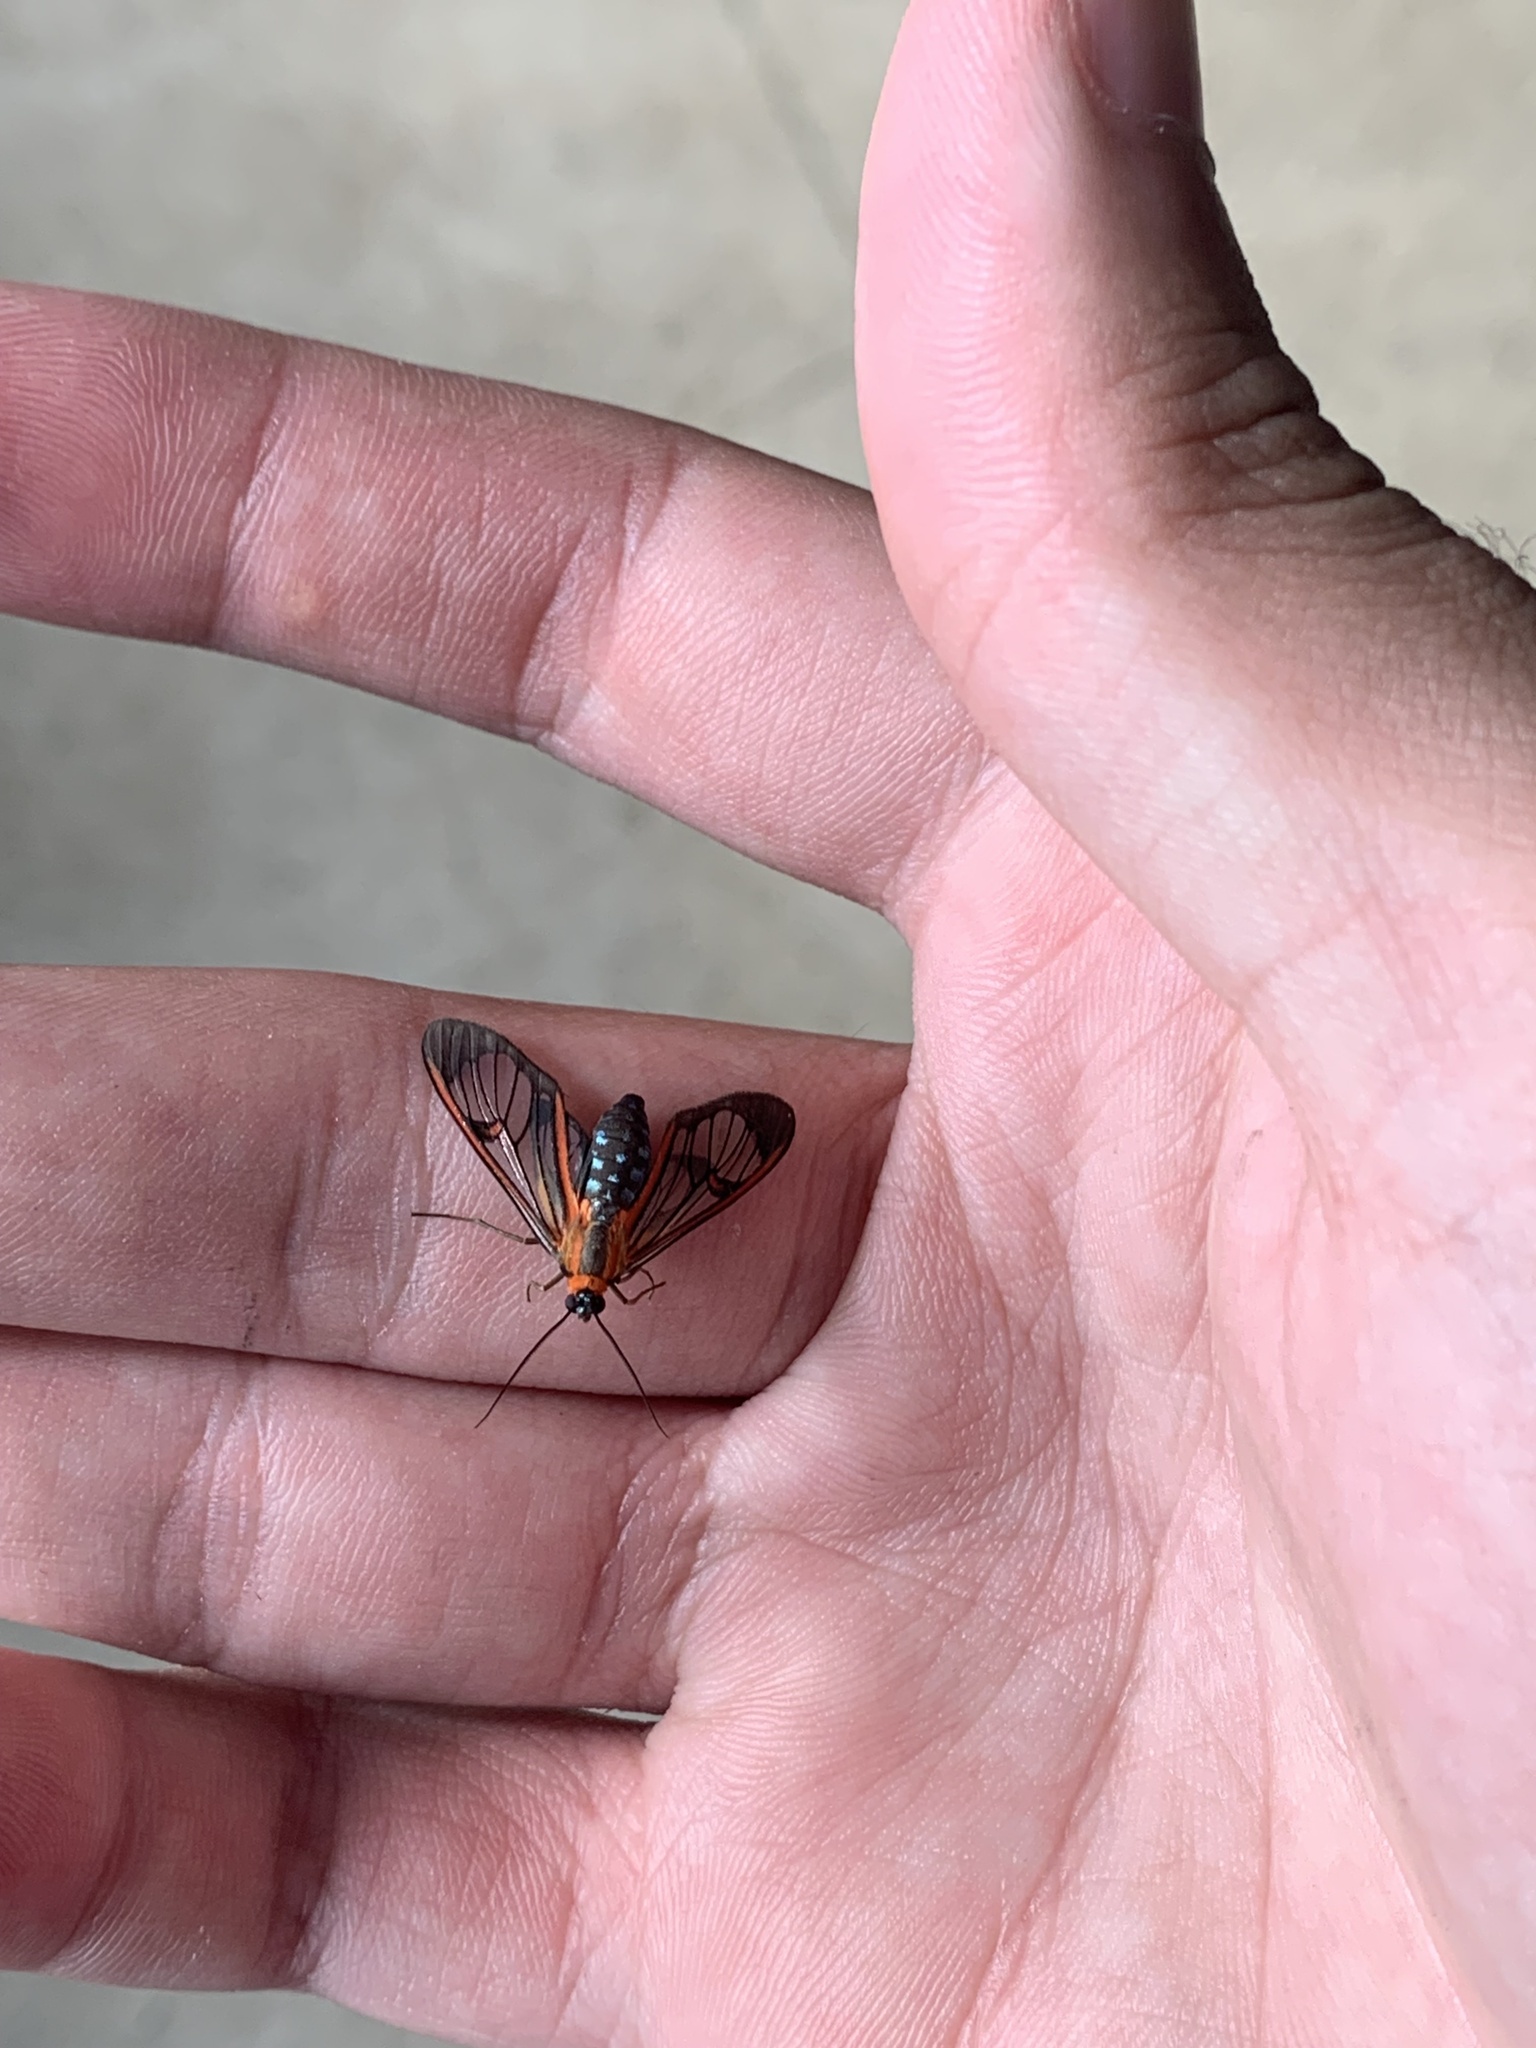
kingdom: Animalia
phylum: Arthropoda
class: Insecta
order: Lepidoptera
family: Erebidae
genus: Lepidoneiva
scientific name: Lepidoneiva erubescens
